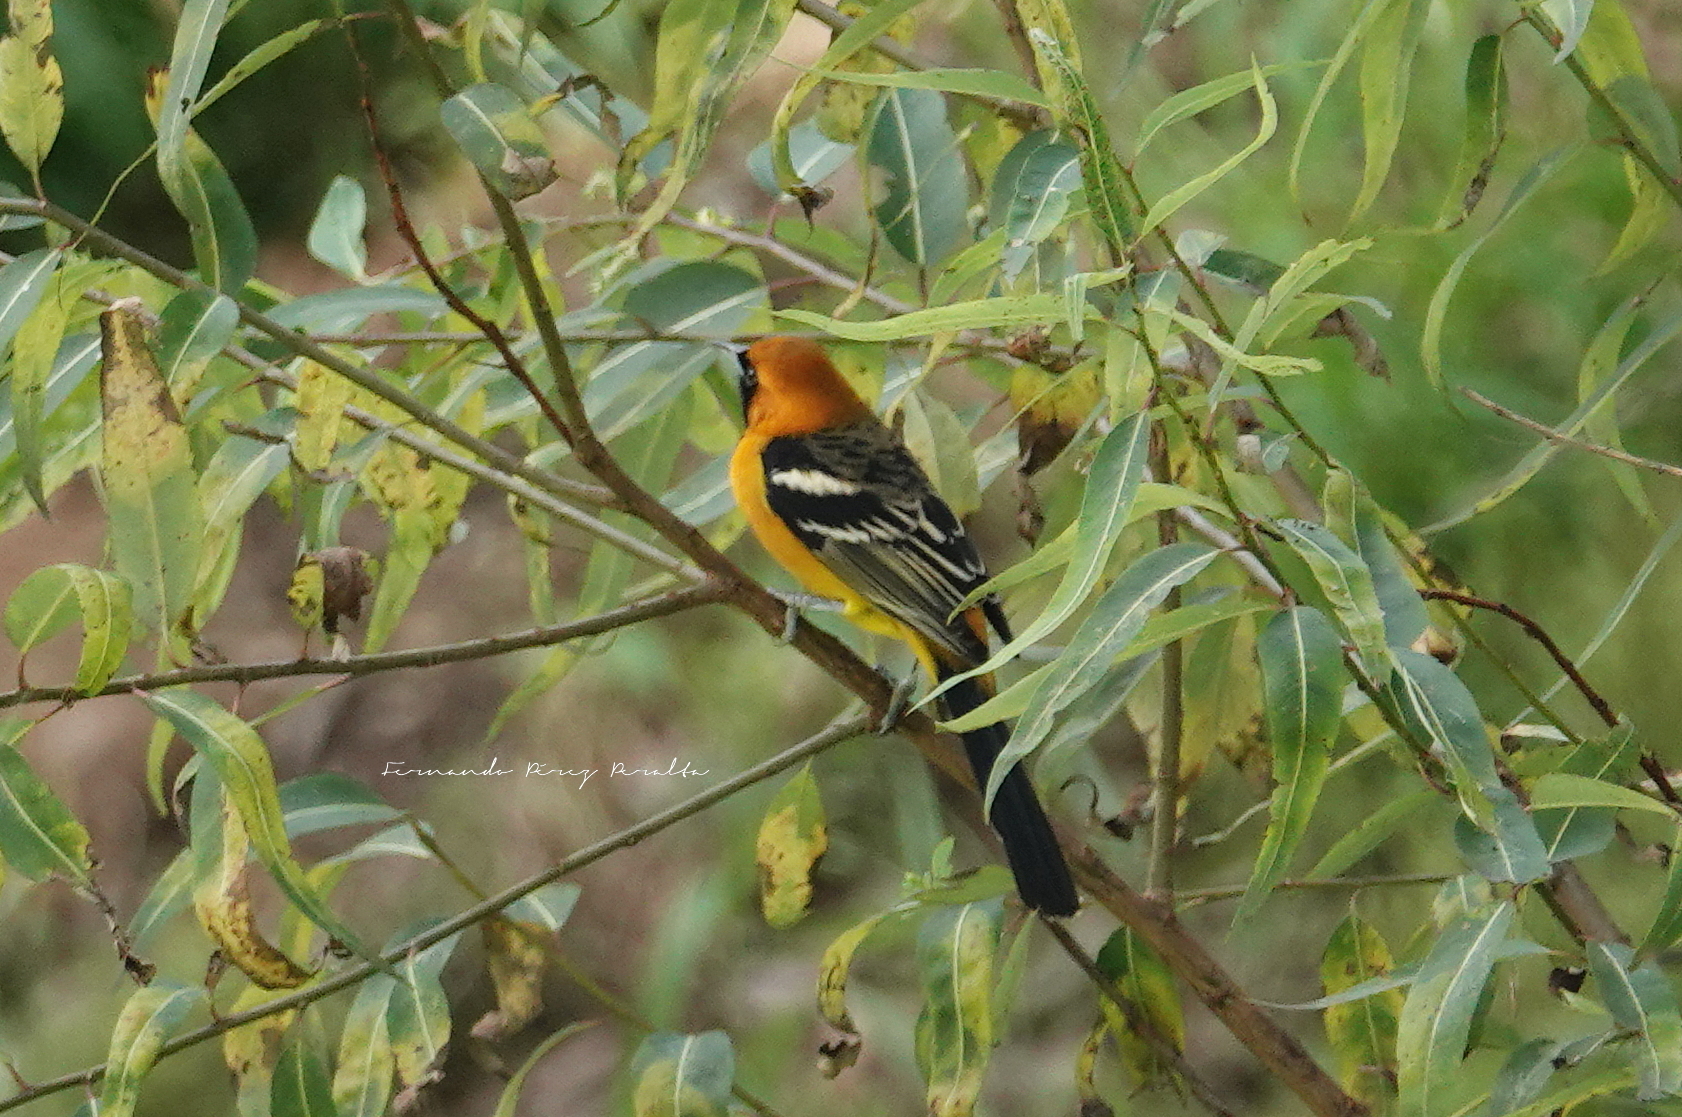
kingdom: Animalia
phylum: Chordata
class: Aves
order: Passeriformes
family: Icteridae
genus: Icterus
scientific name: Icterus cucullatus
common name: Hooded oriole
